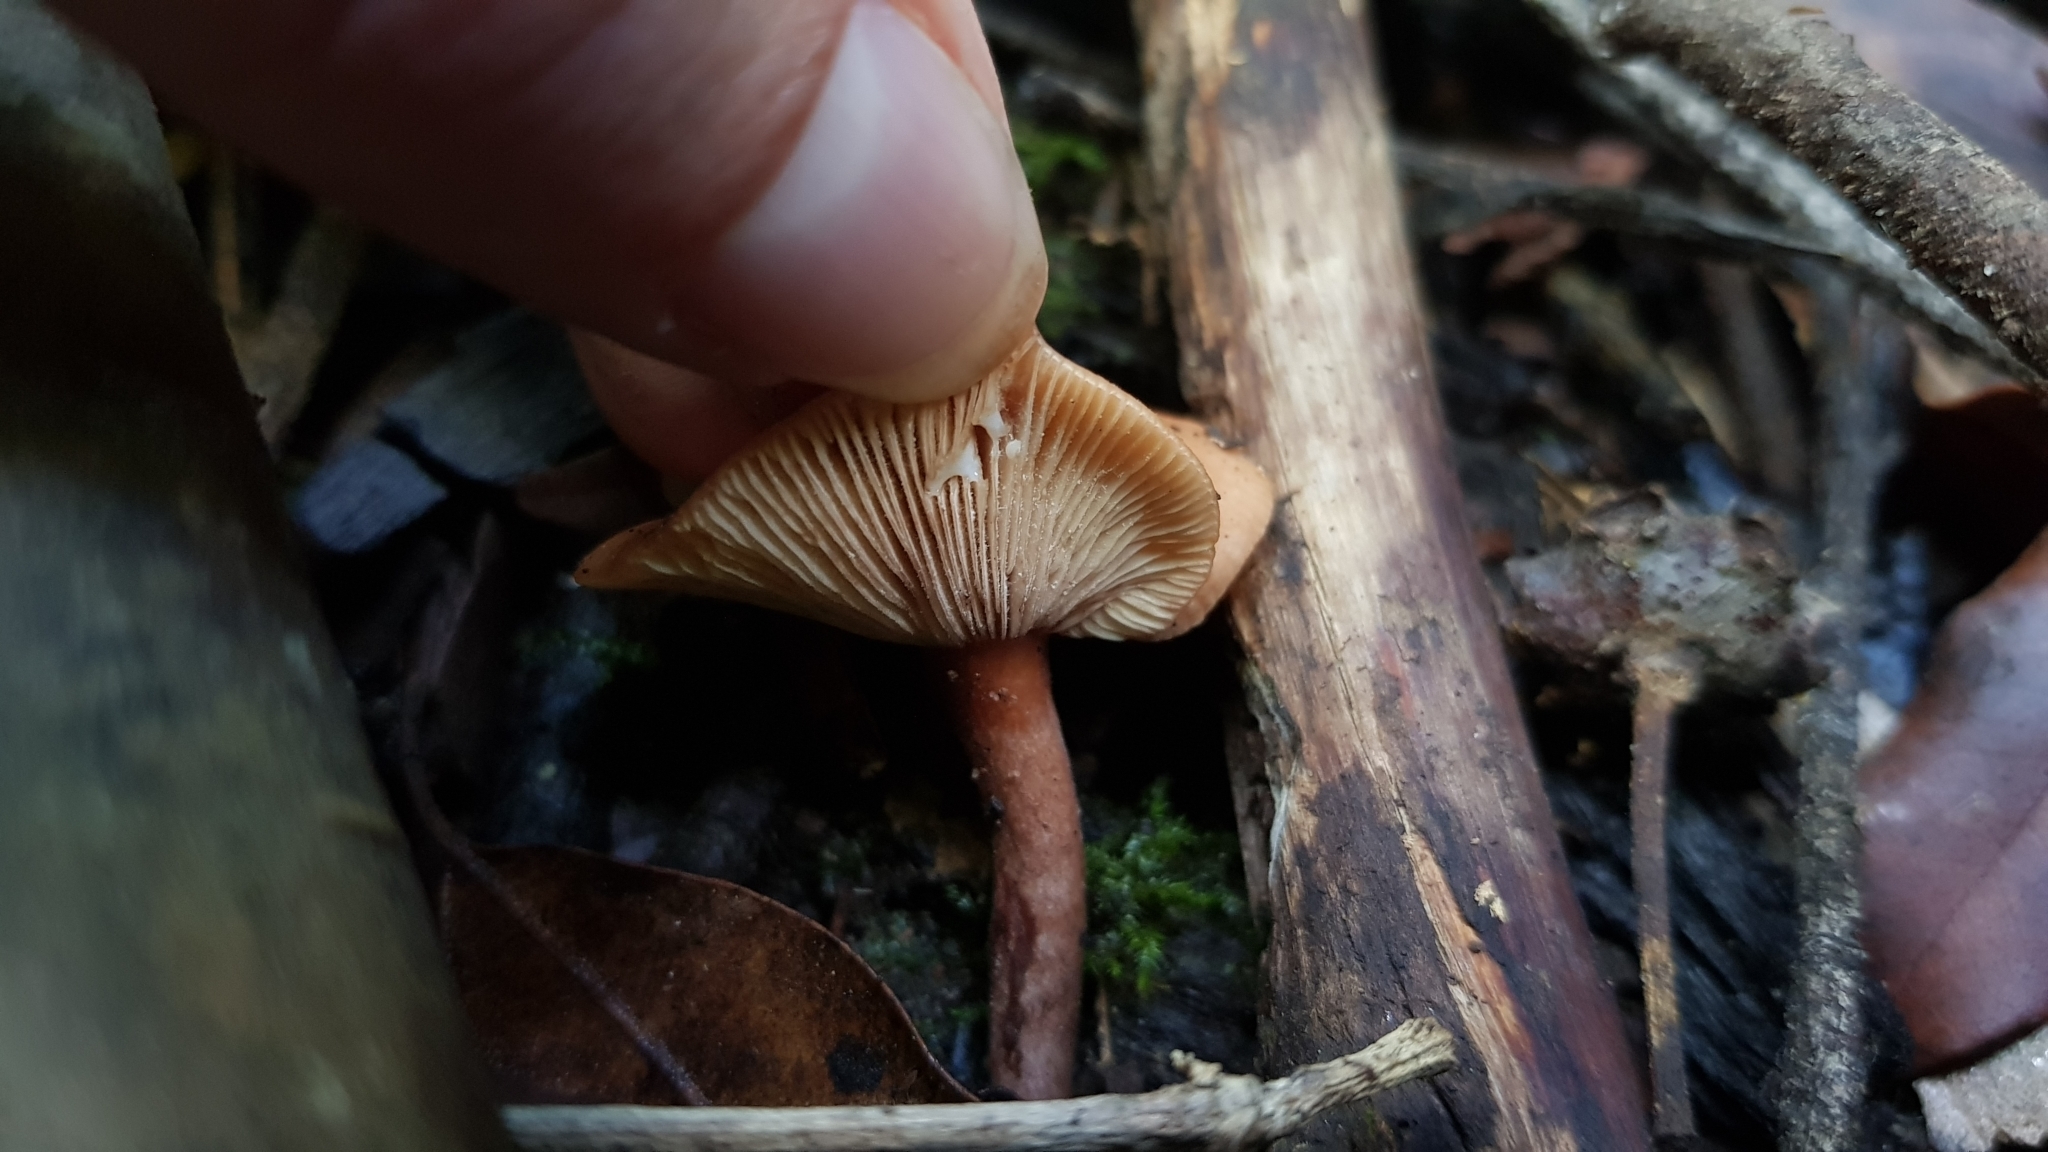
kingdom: Fungi
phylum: Basidiomycota
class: Agaricomycetes
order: Russulales
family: Russulaceae
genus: Lactarius
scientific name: Lactarius eucalypti
